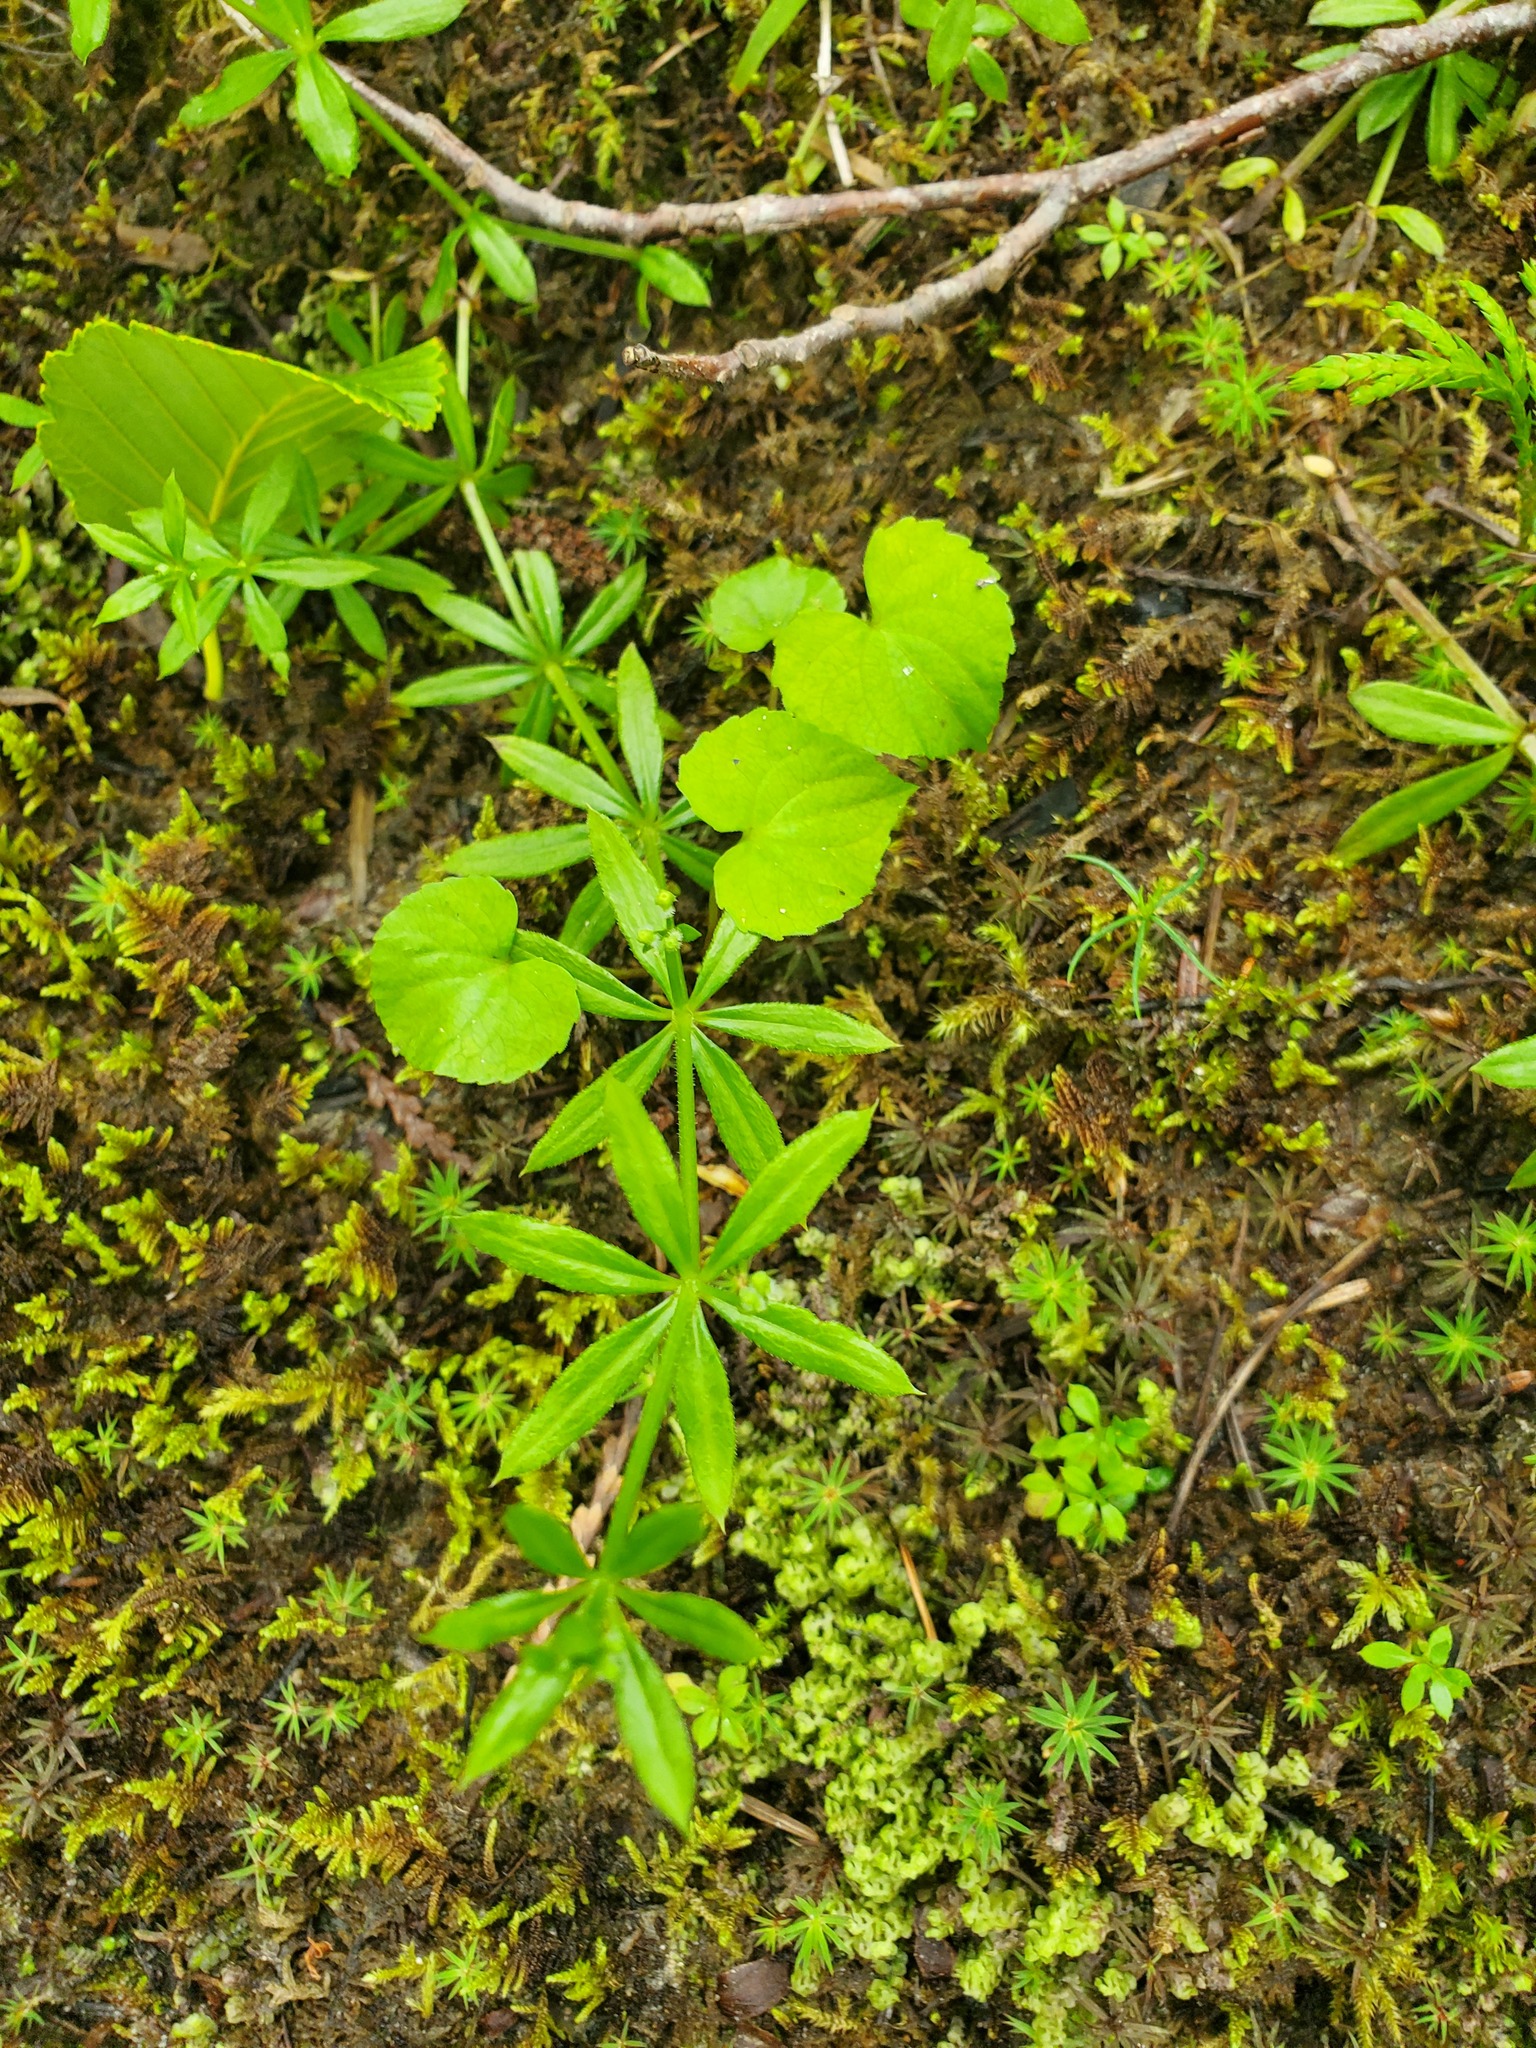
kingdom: Plantae
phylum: Tracheophyta
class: Magnoliopsida
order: Gentianales
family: Rubiaceae
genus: Galium
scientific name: Galium triflorum
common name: Fragrant bedstraw
